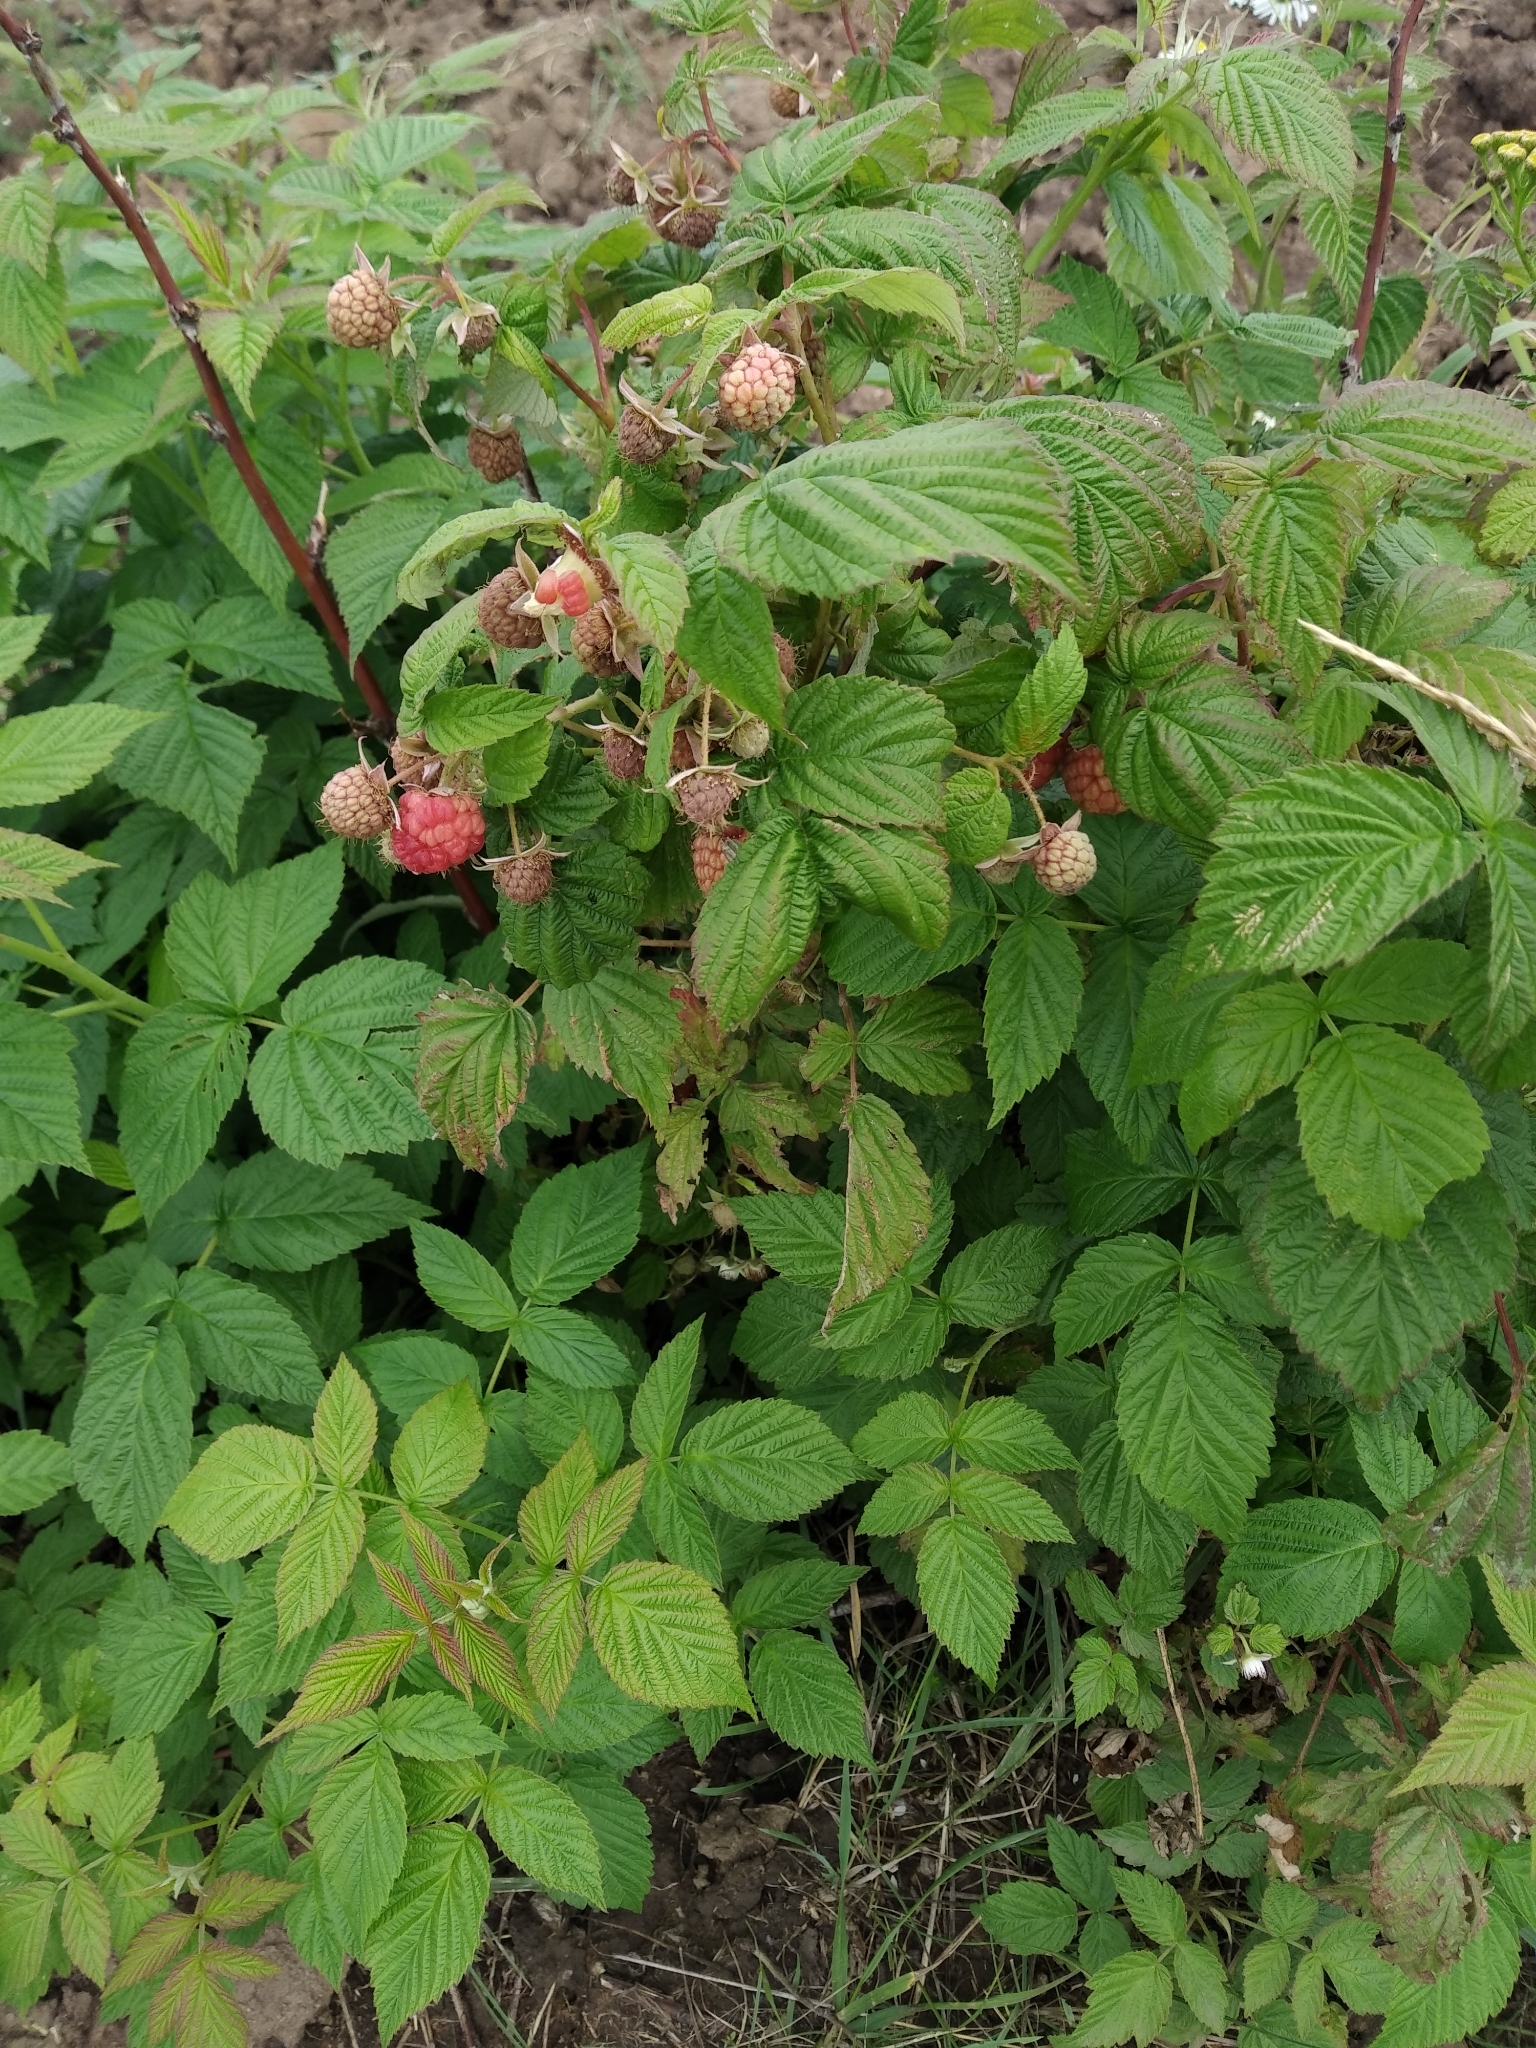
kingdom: Plantae
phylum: Tracheophyta
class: Magnoliopsida
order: Rosales
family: Rosaceae
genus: Rubus
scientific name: Rubus idaeus
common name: Raspberry
